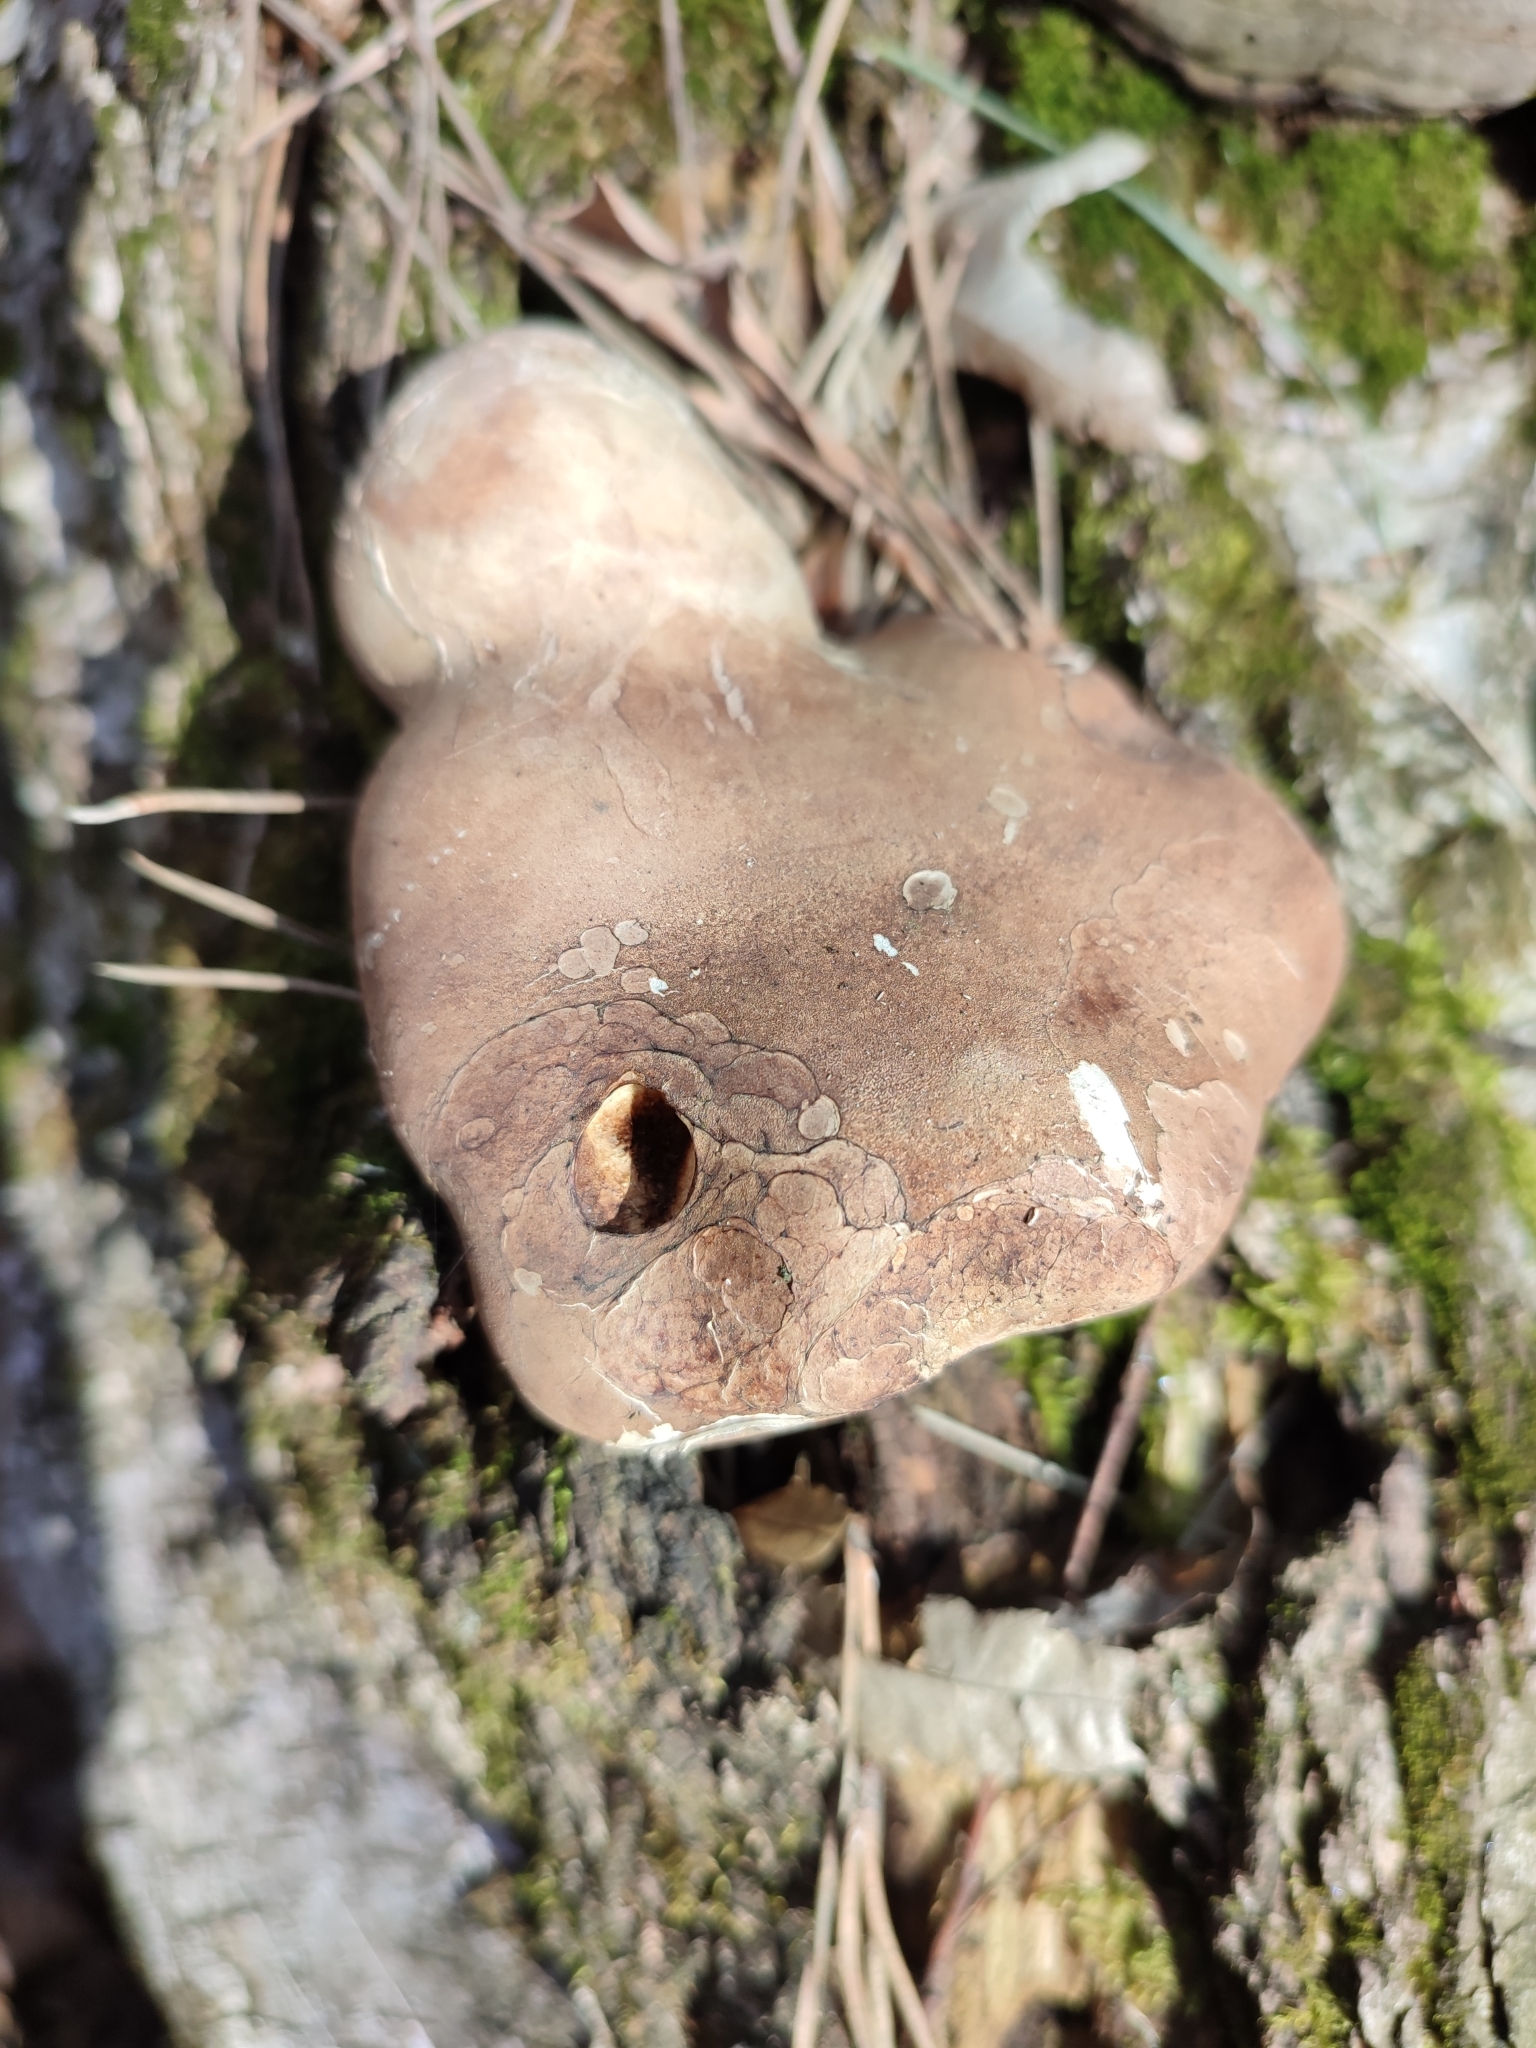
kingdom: Fungi
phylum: Basidiomycota
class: Agaricomycetes
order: Polyporales
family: Fomitopsidaceae
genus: Fomitopsis
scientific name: Fomitopsis betulina
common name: Birch polypore
